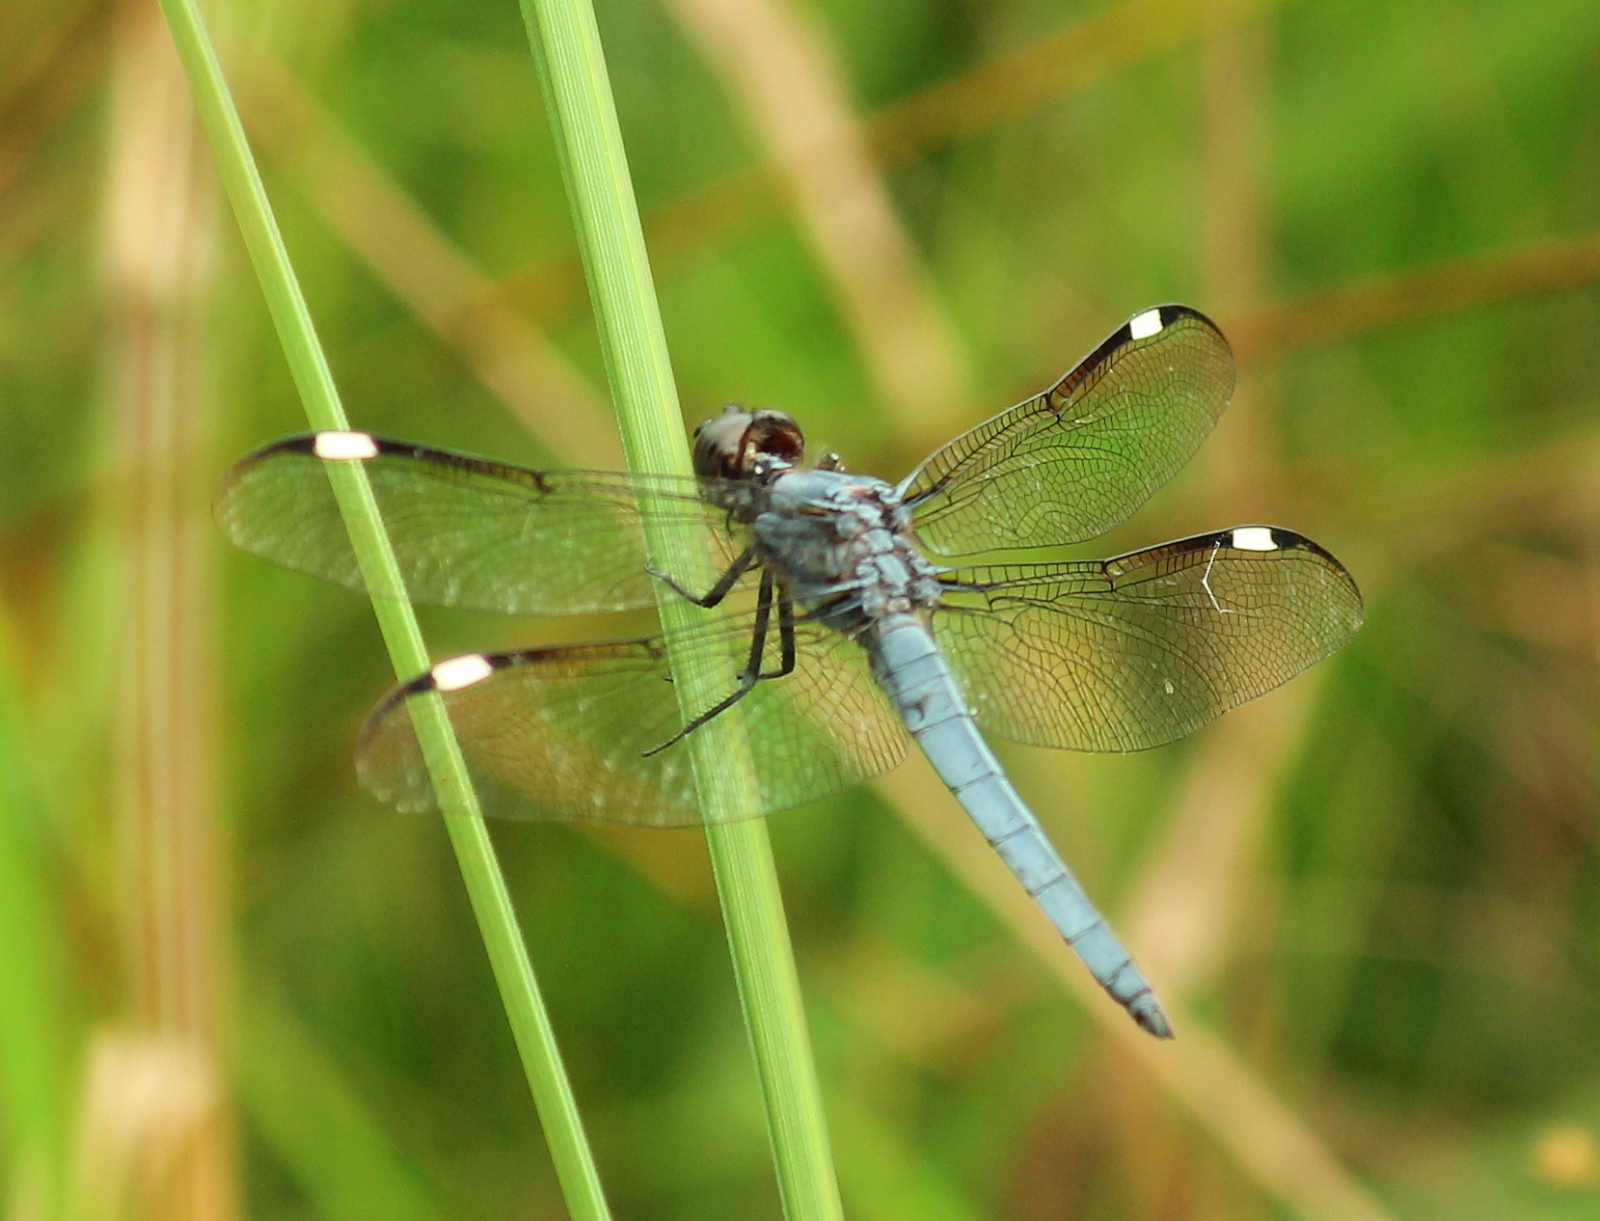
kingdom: Animalia
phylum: Arthropoda
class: Insecta
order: Odonata
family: Libellulidae
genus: Libellula
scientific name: Libellula cyanea
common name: Spangled skimmer
